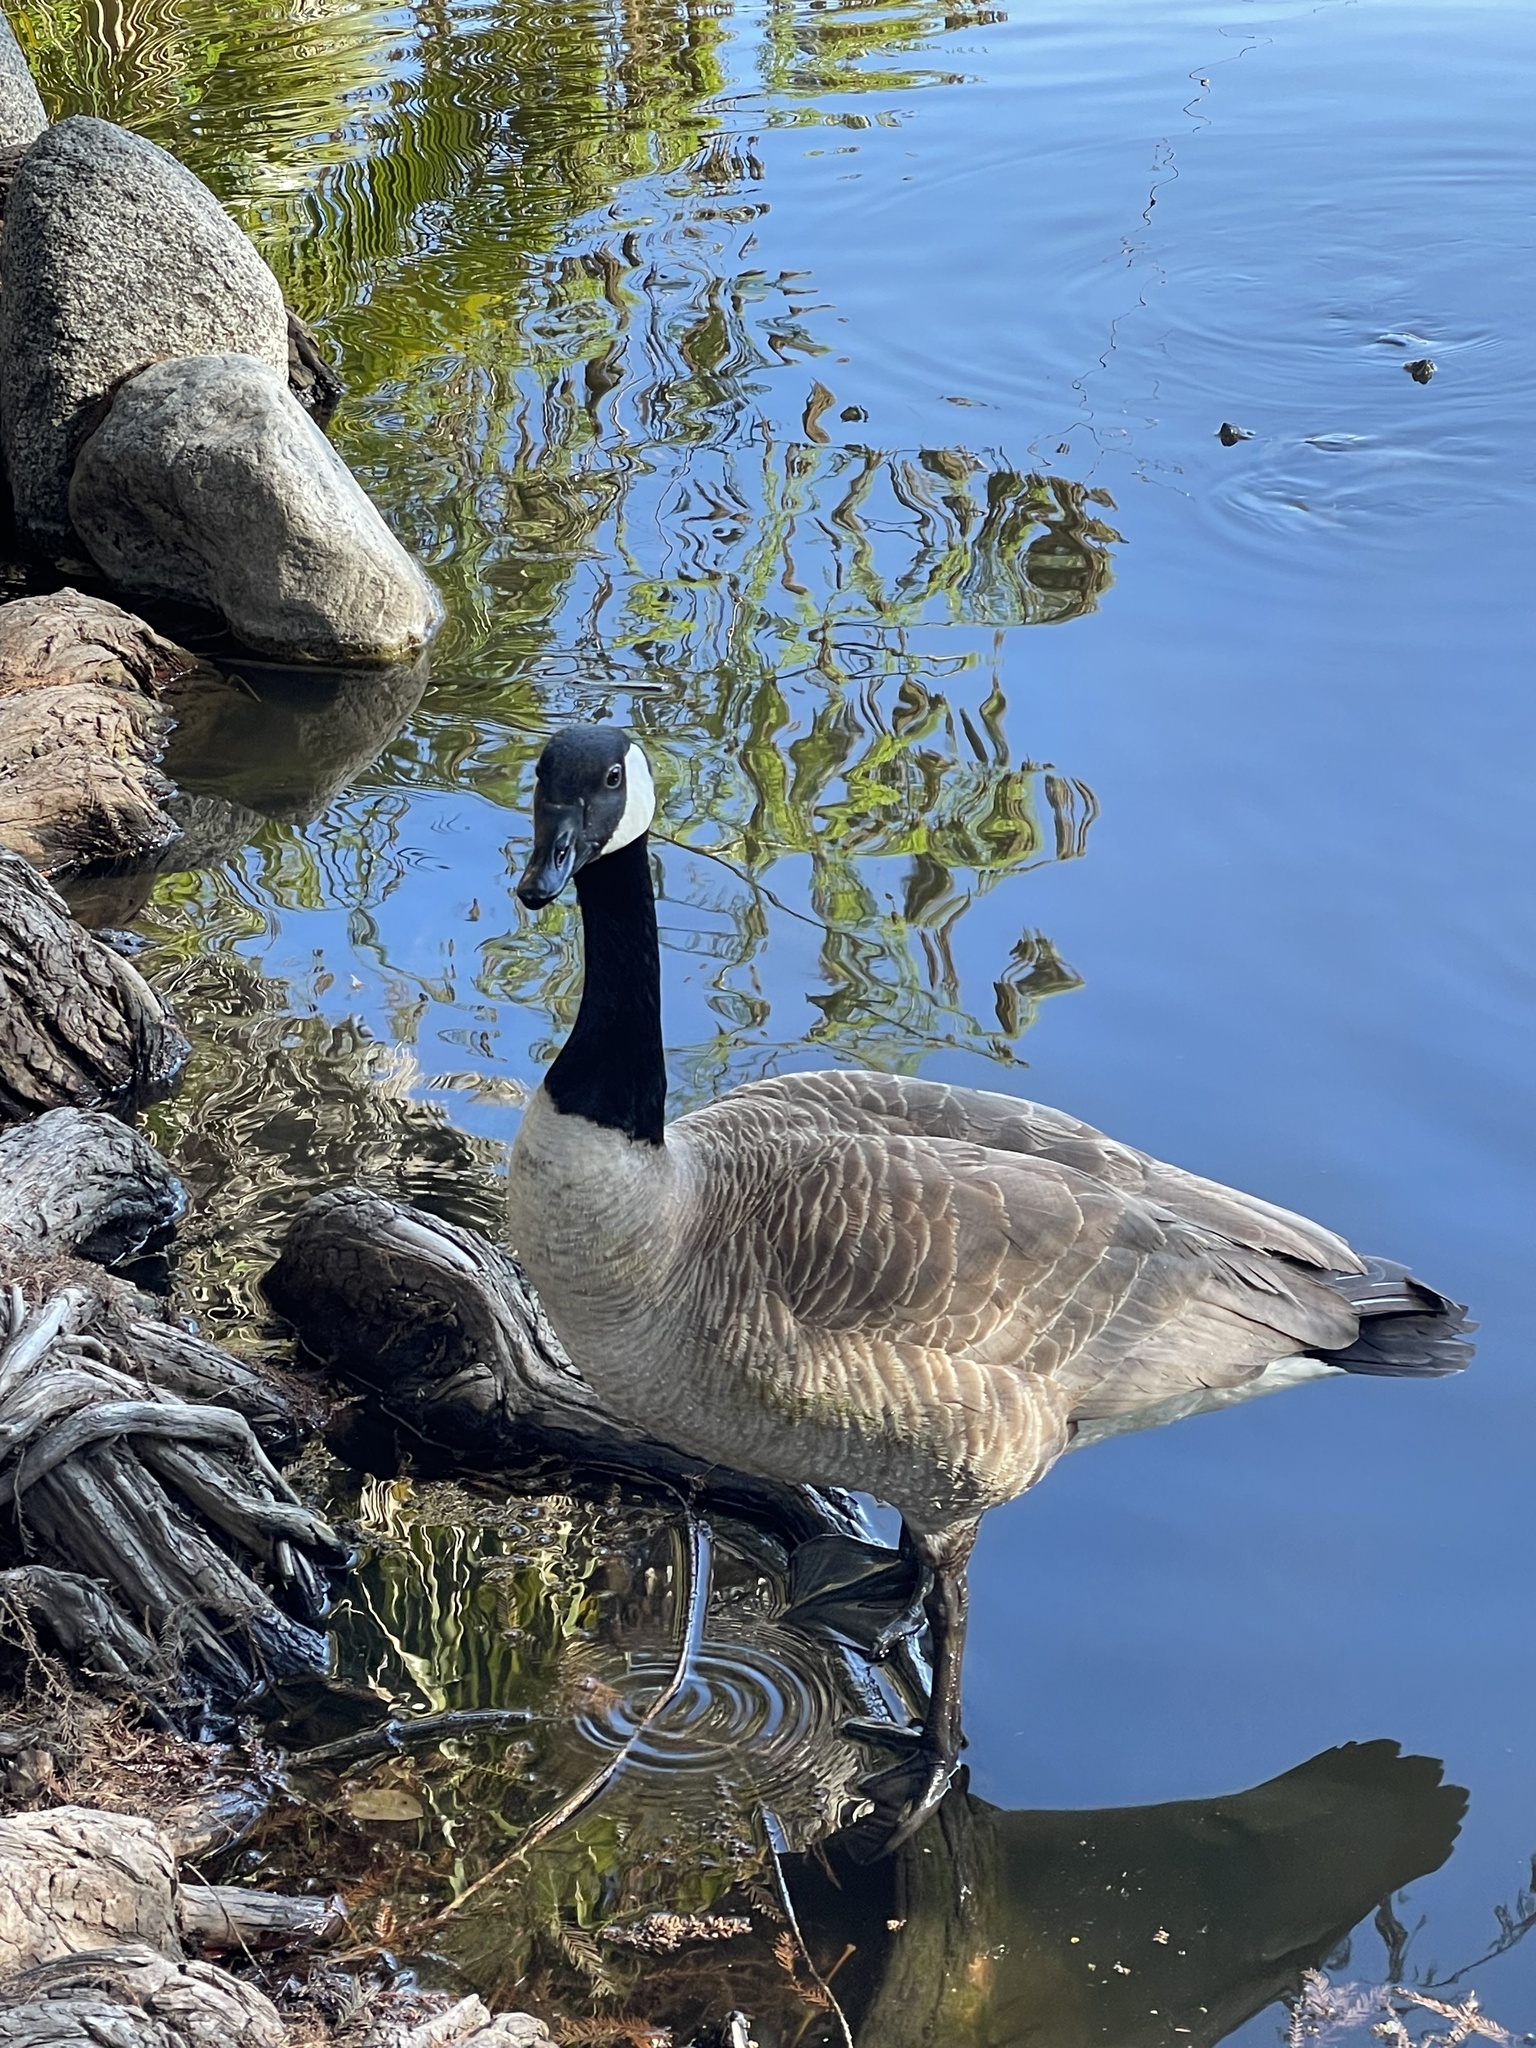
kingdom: Animalia
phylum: Chordata
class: Aves
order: Anseriformes
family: Anatidae
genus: Branta
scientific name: Branta canadensis
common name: Canada goose
